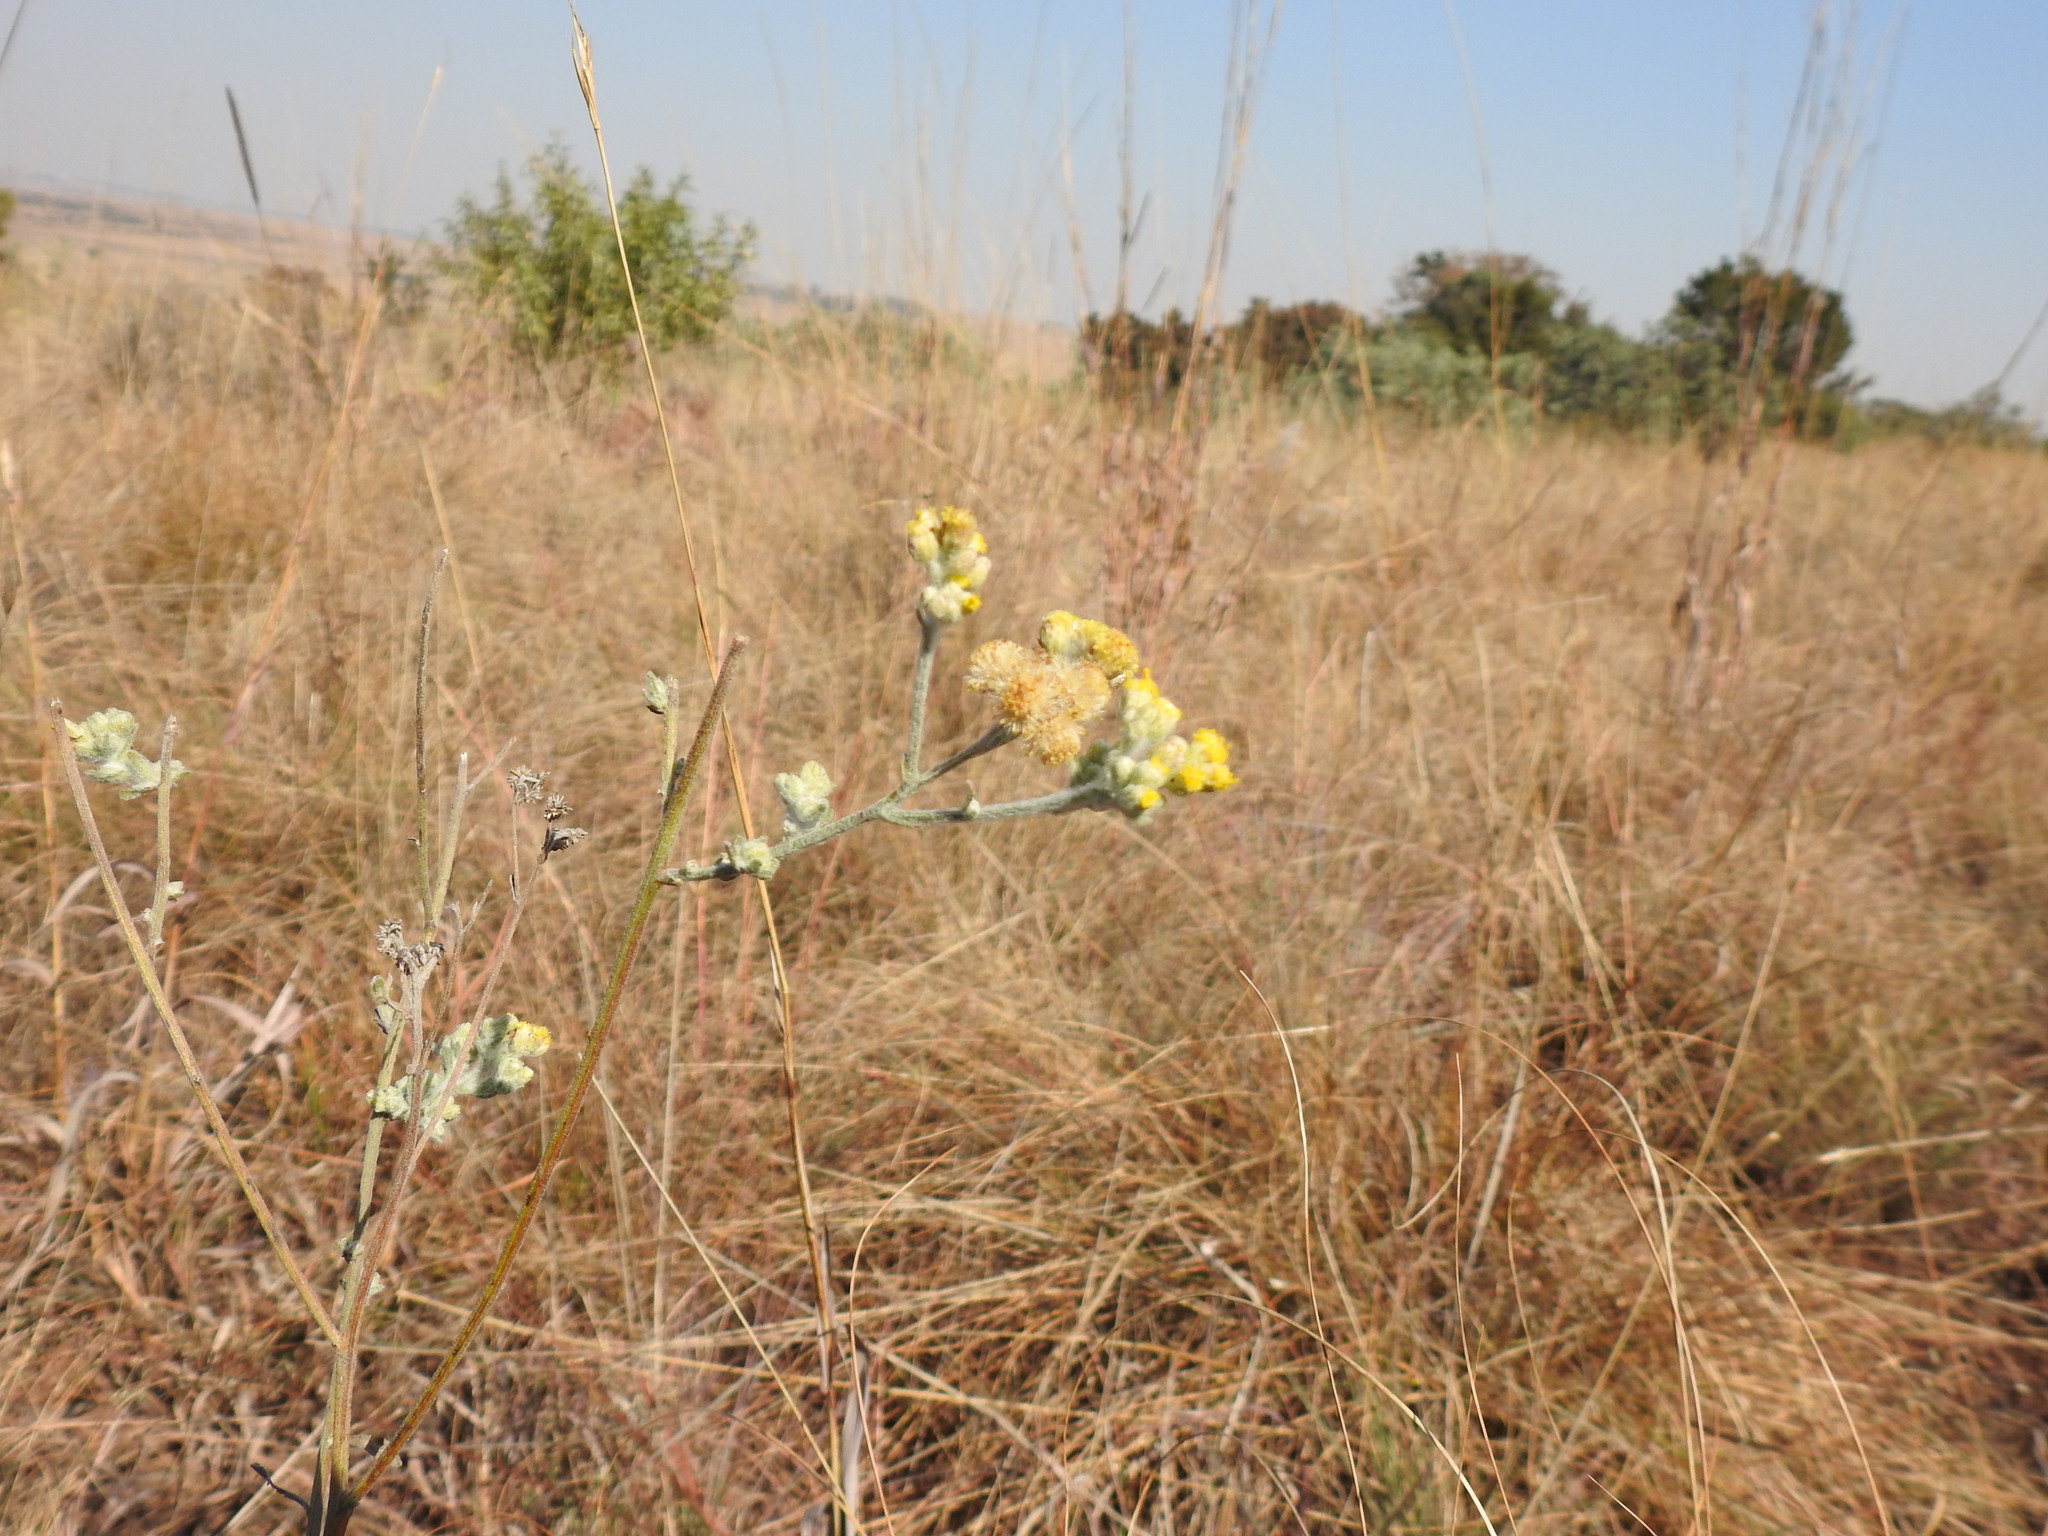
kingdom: Plantae
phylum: Tracheophyta
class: Magnoliopsida
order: Asterales
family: Asteraceae
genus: Nidorella
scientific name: Nidorella hottentotica
